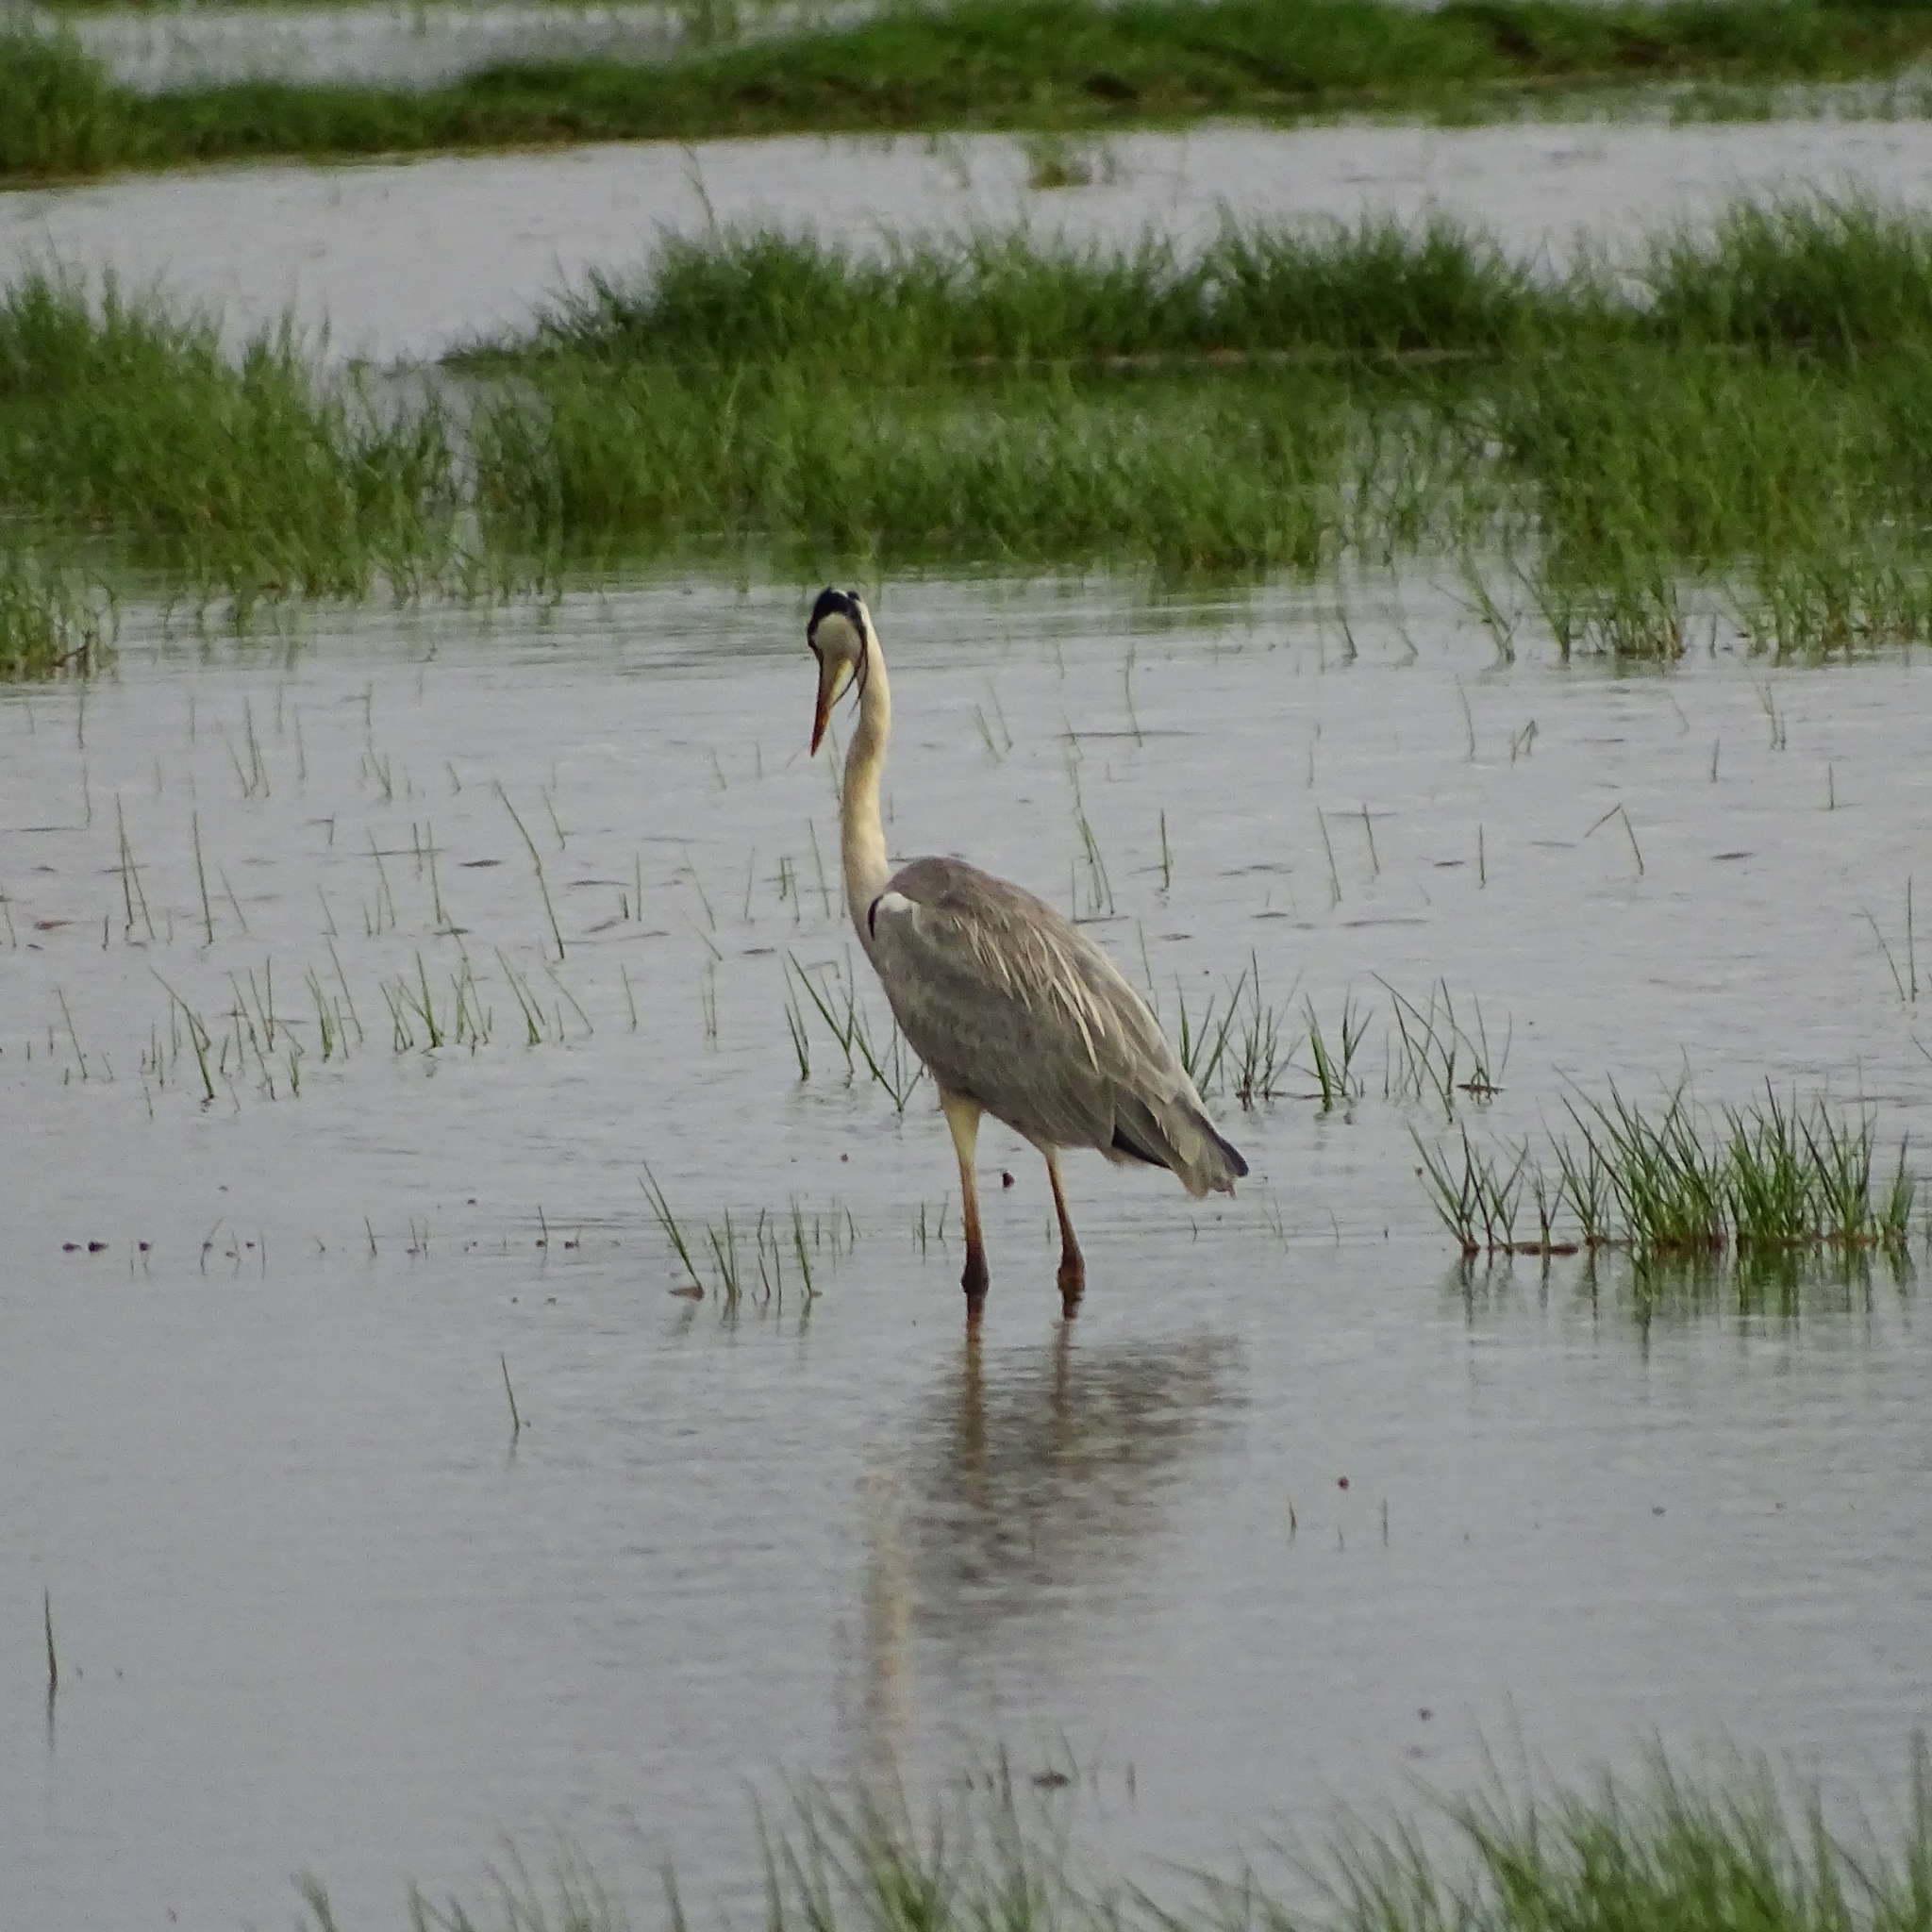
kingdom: Animalia
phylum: Chordata
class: Aves
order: Pelecaniformes
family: Ardeidae
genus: Ardea
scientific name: Ardea cinerea
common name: Grey heron
